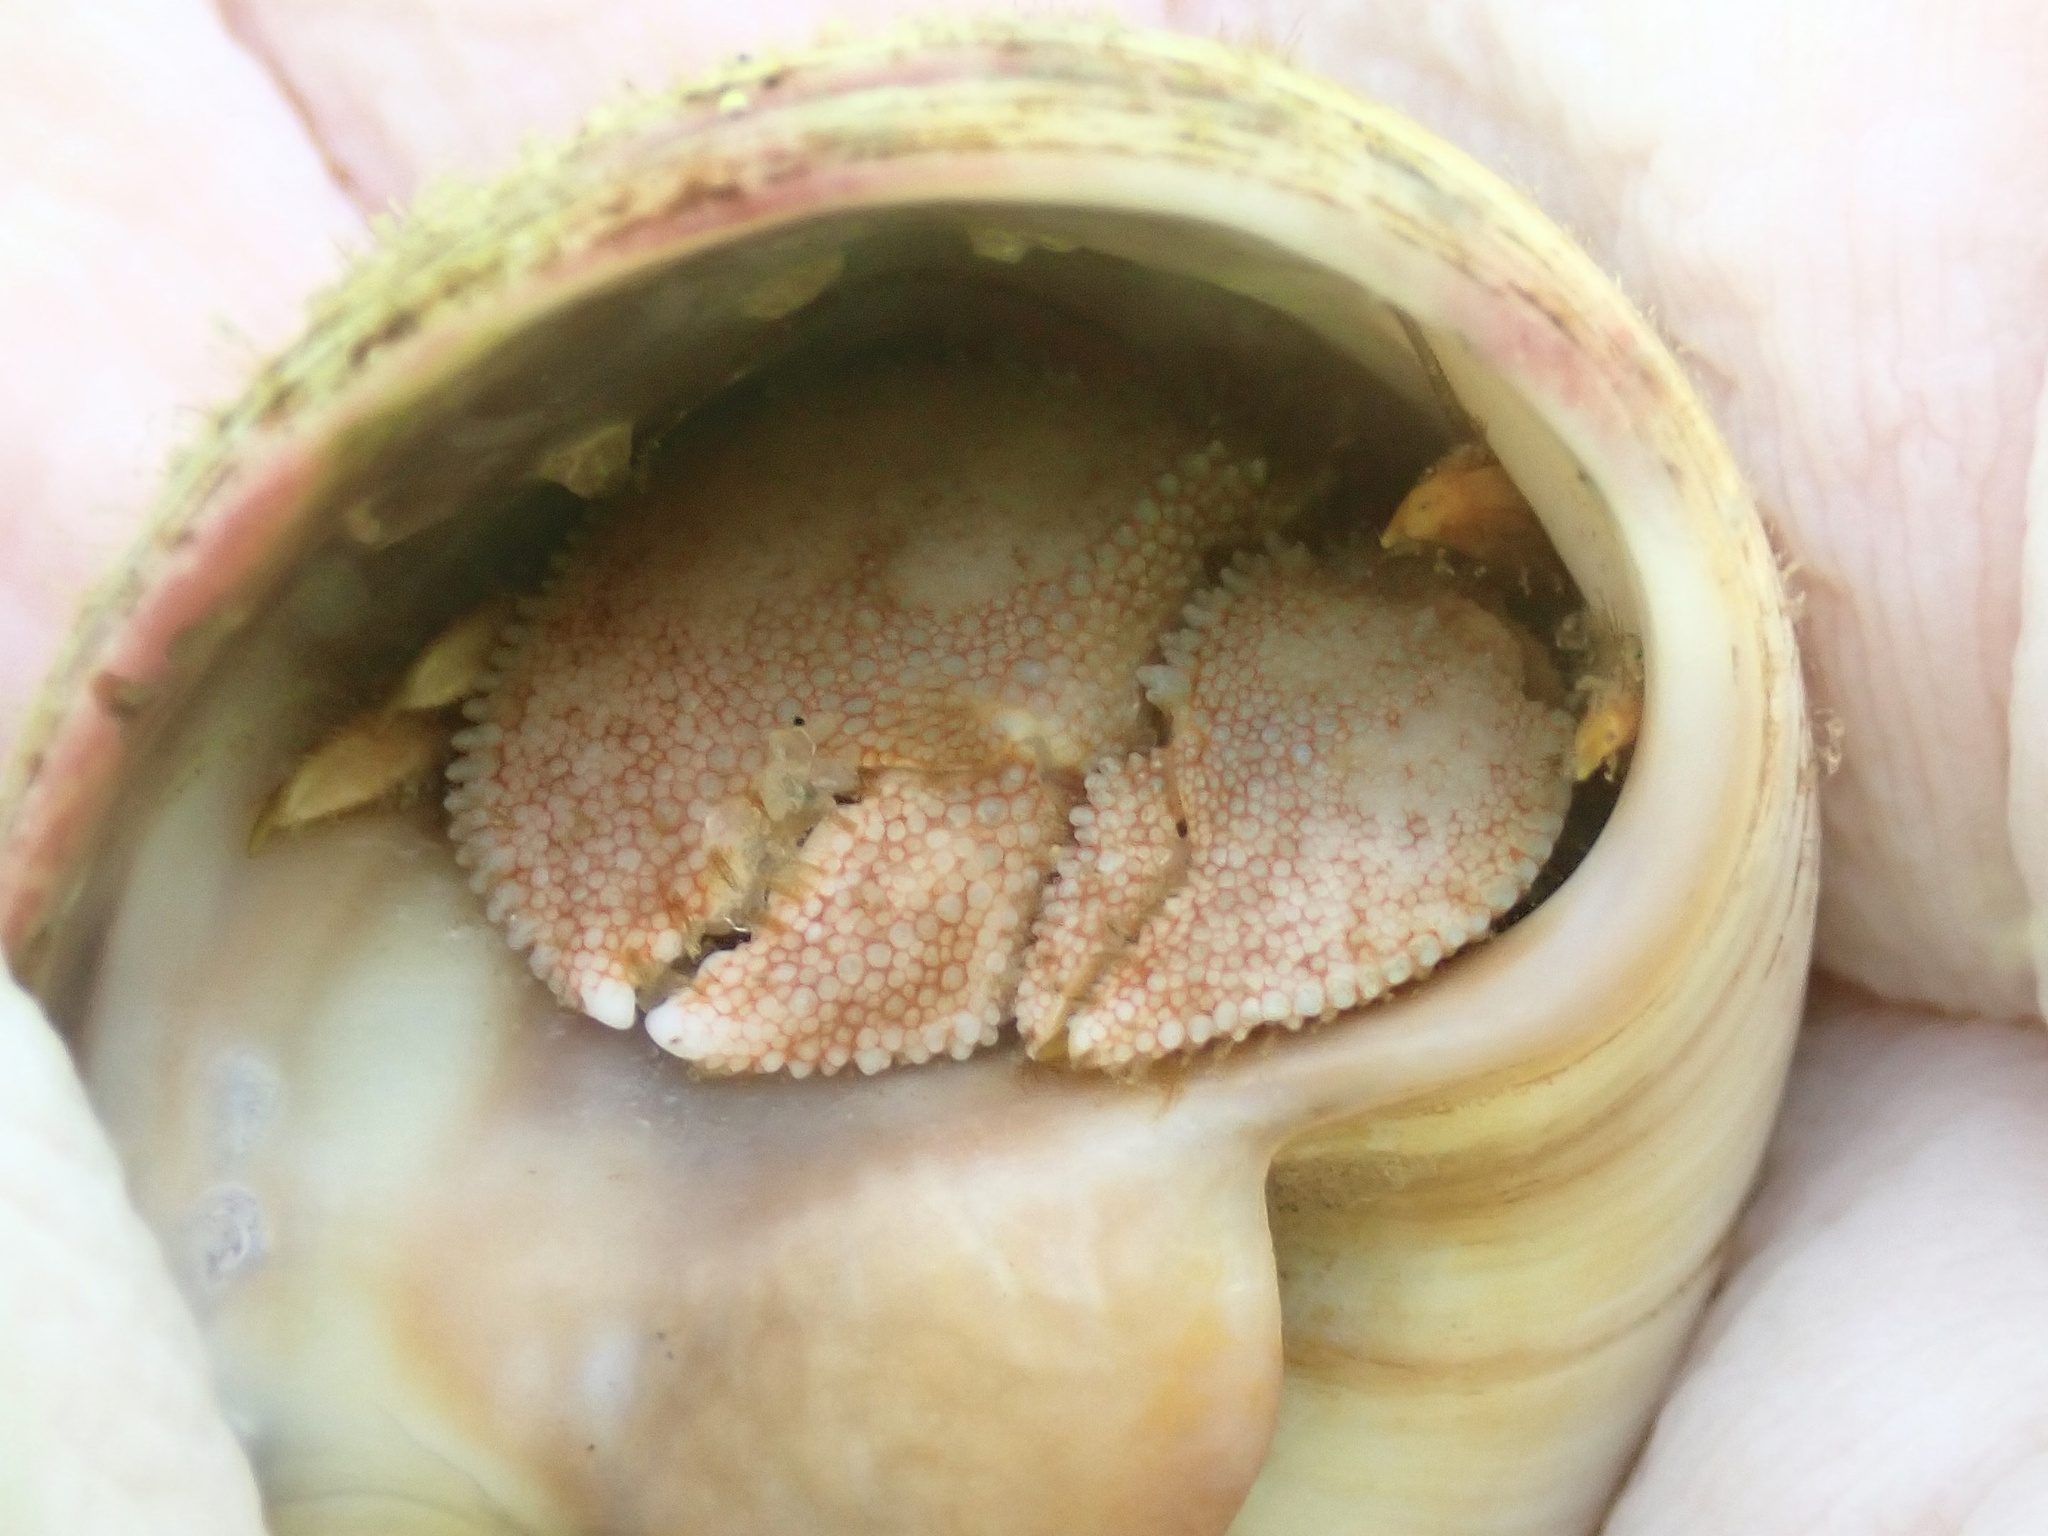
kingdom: Animalia
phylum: Arthropoda
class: Malacostraca
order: Decapoda
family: Paguridae
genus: Pagurus
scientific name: Pagurus pollicaris
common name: Flatclaw hermit
